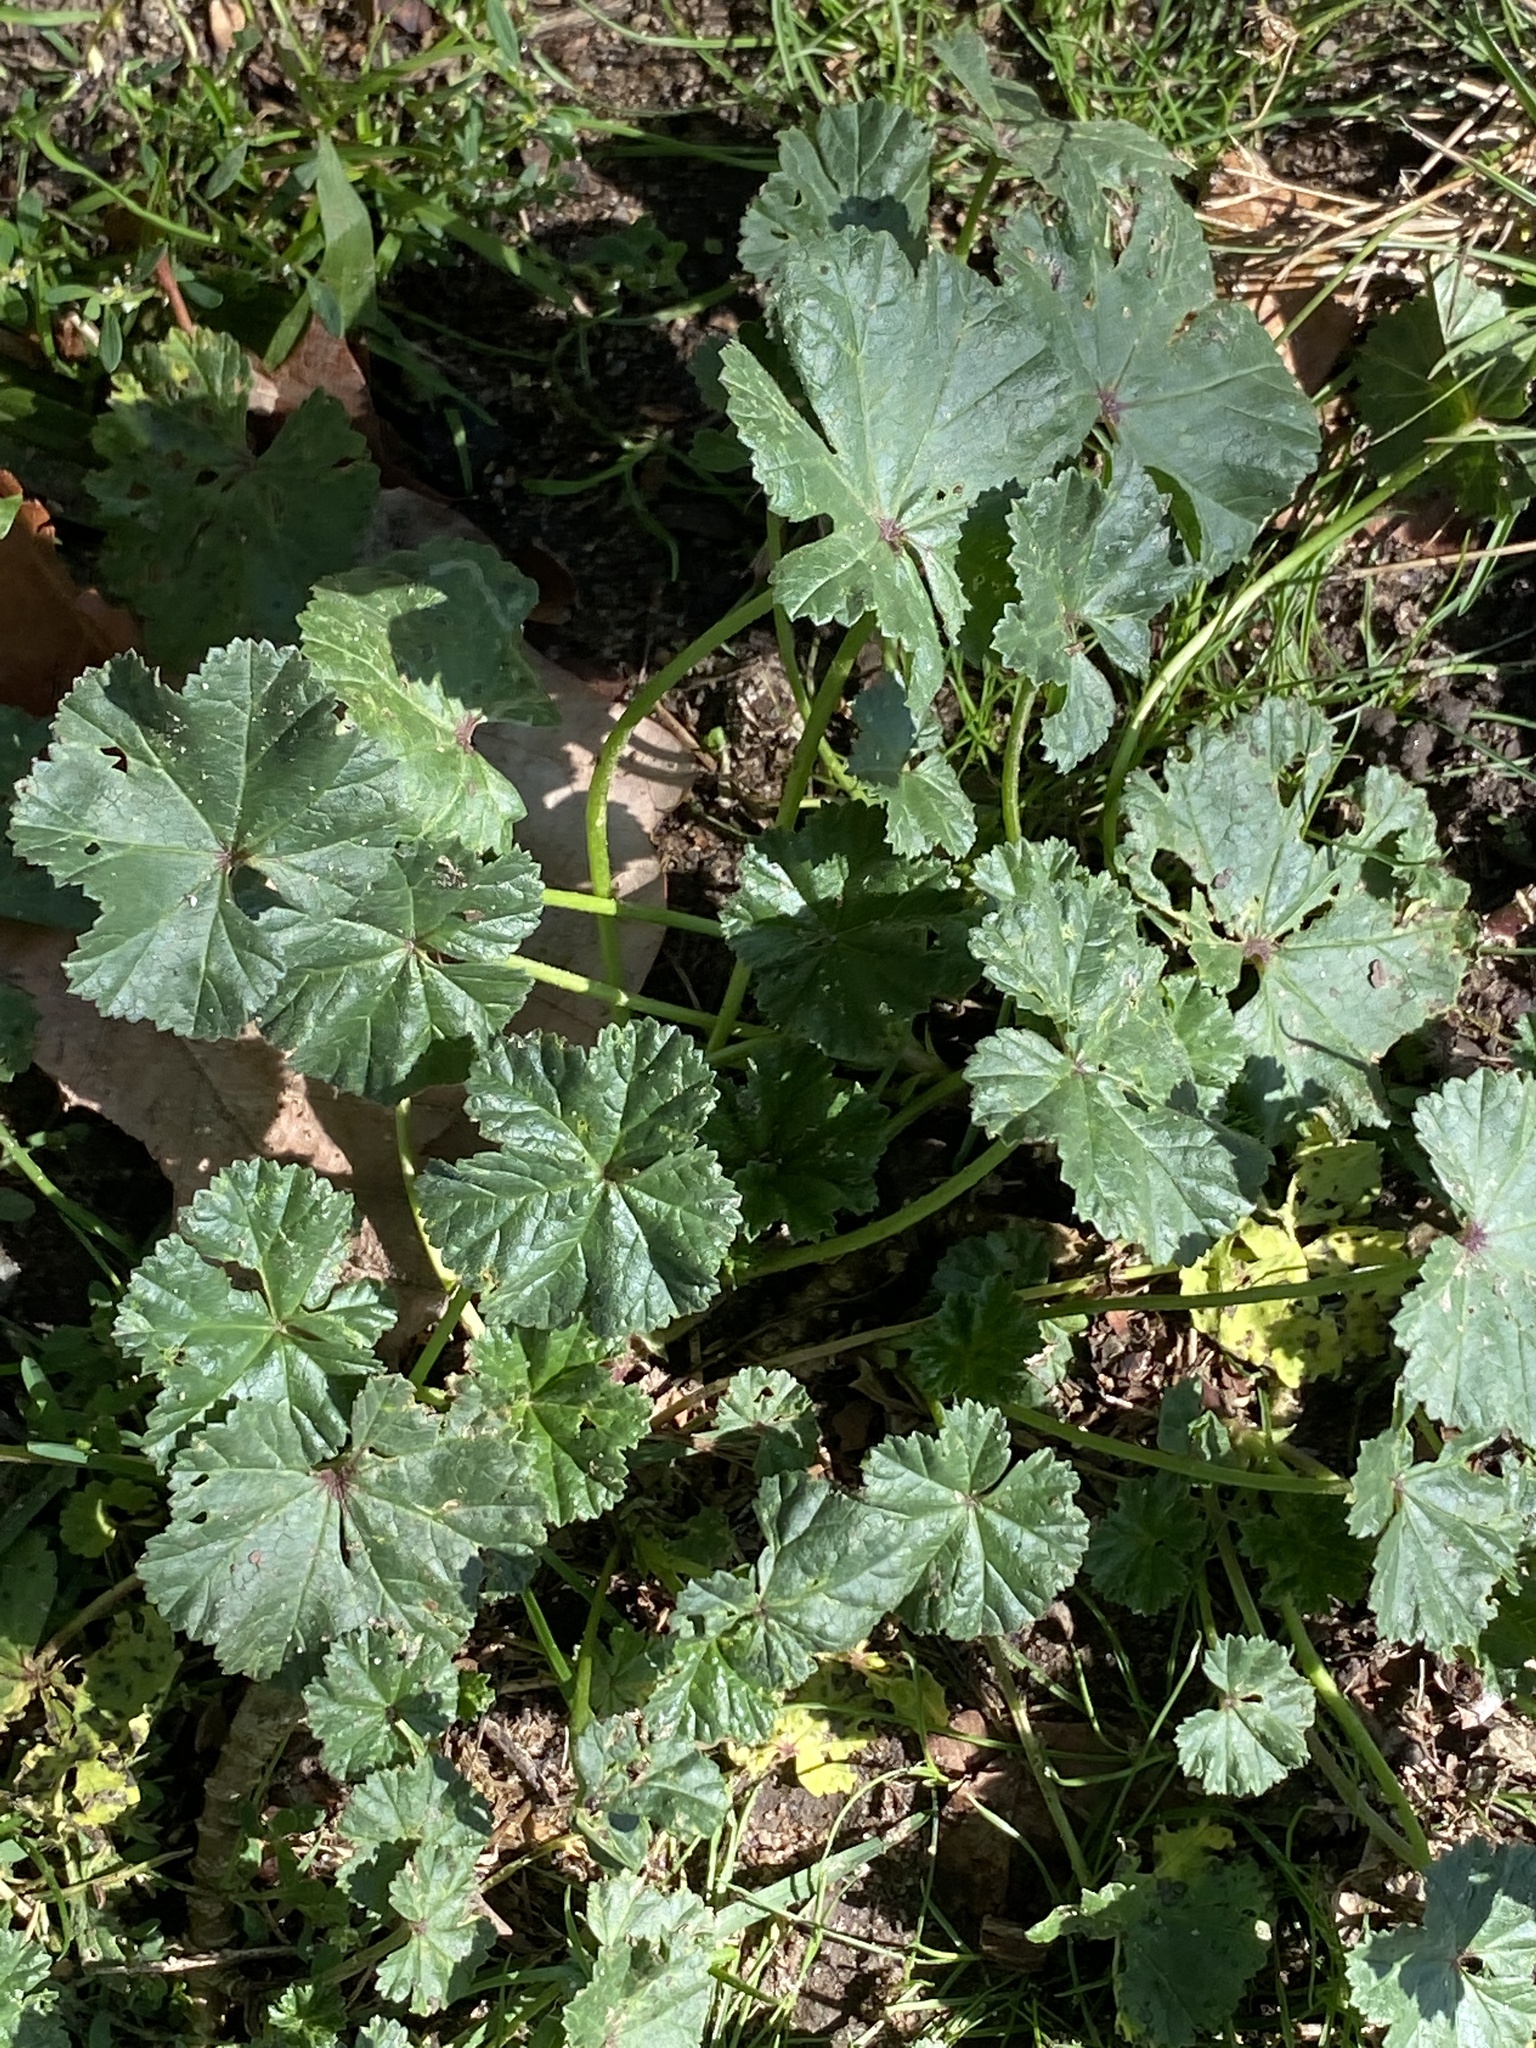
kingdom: Plantae
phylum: Tracheophyta
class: Magnoliopsida
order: Malvales
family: Malvaceae
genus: Malva
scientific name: Malva neglecta
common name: Common mallow
